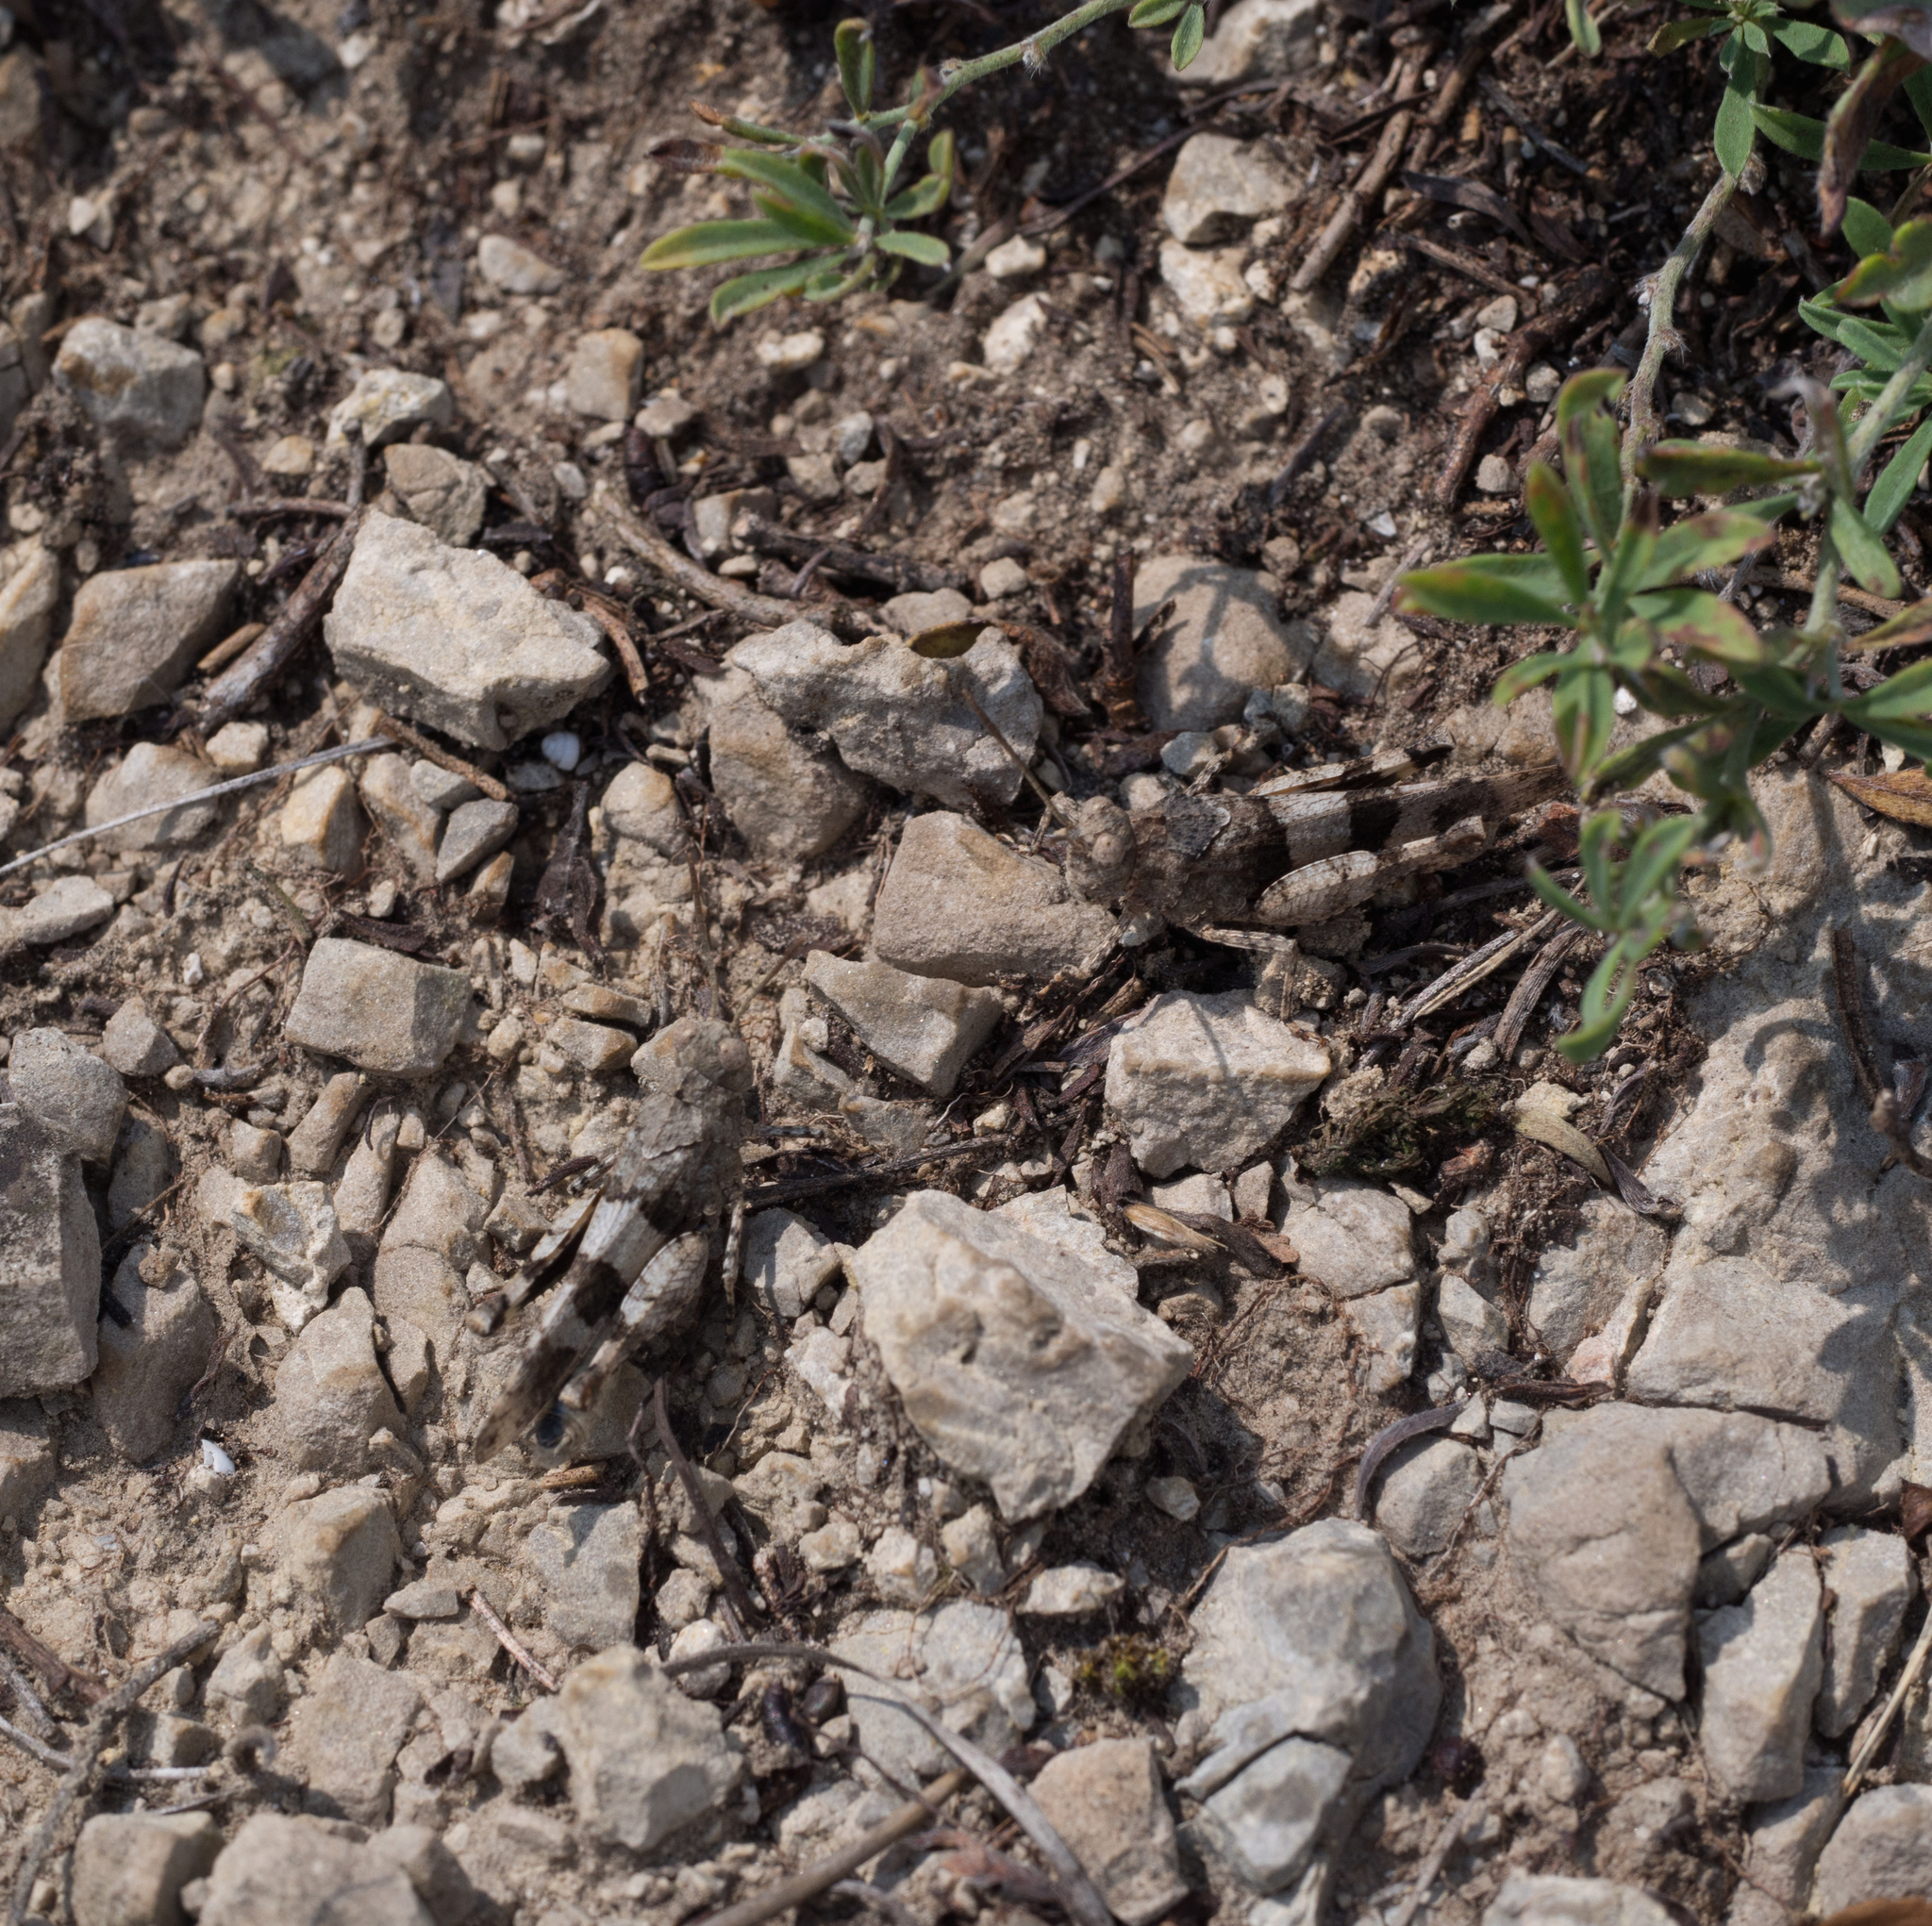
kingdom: Animalia
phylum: Arthropoda
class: Insecta
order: Orthoptera
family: Acrididae
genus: Oedipoda
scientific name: Oedipoda caerulescens
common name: Blue-winged grasshopper
